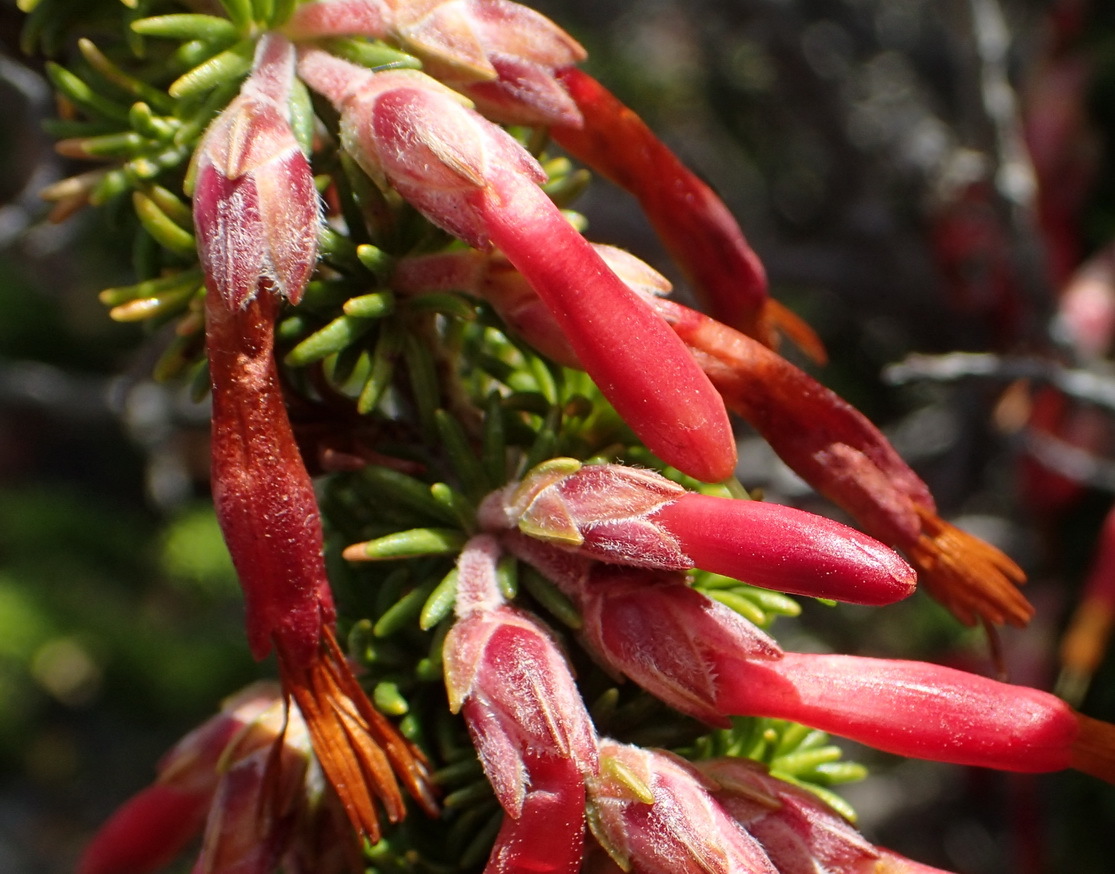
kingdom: Plantae
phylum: Tracheophyta
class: Magnoliopsida
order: Ericales
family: Ericaceae
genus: Erica
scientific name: Erica coccinea
